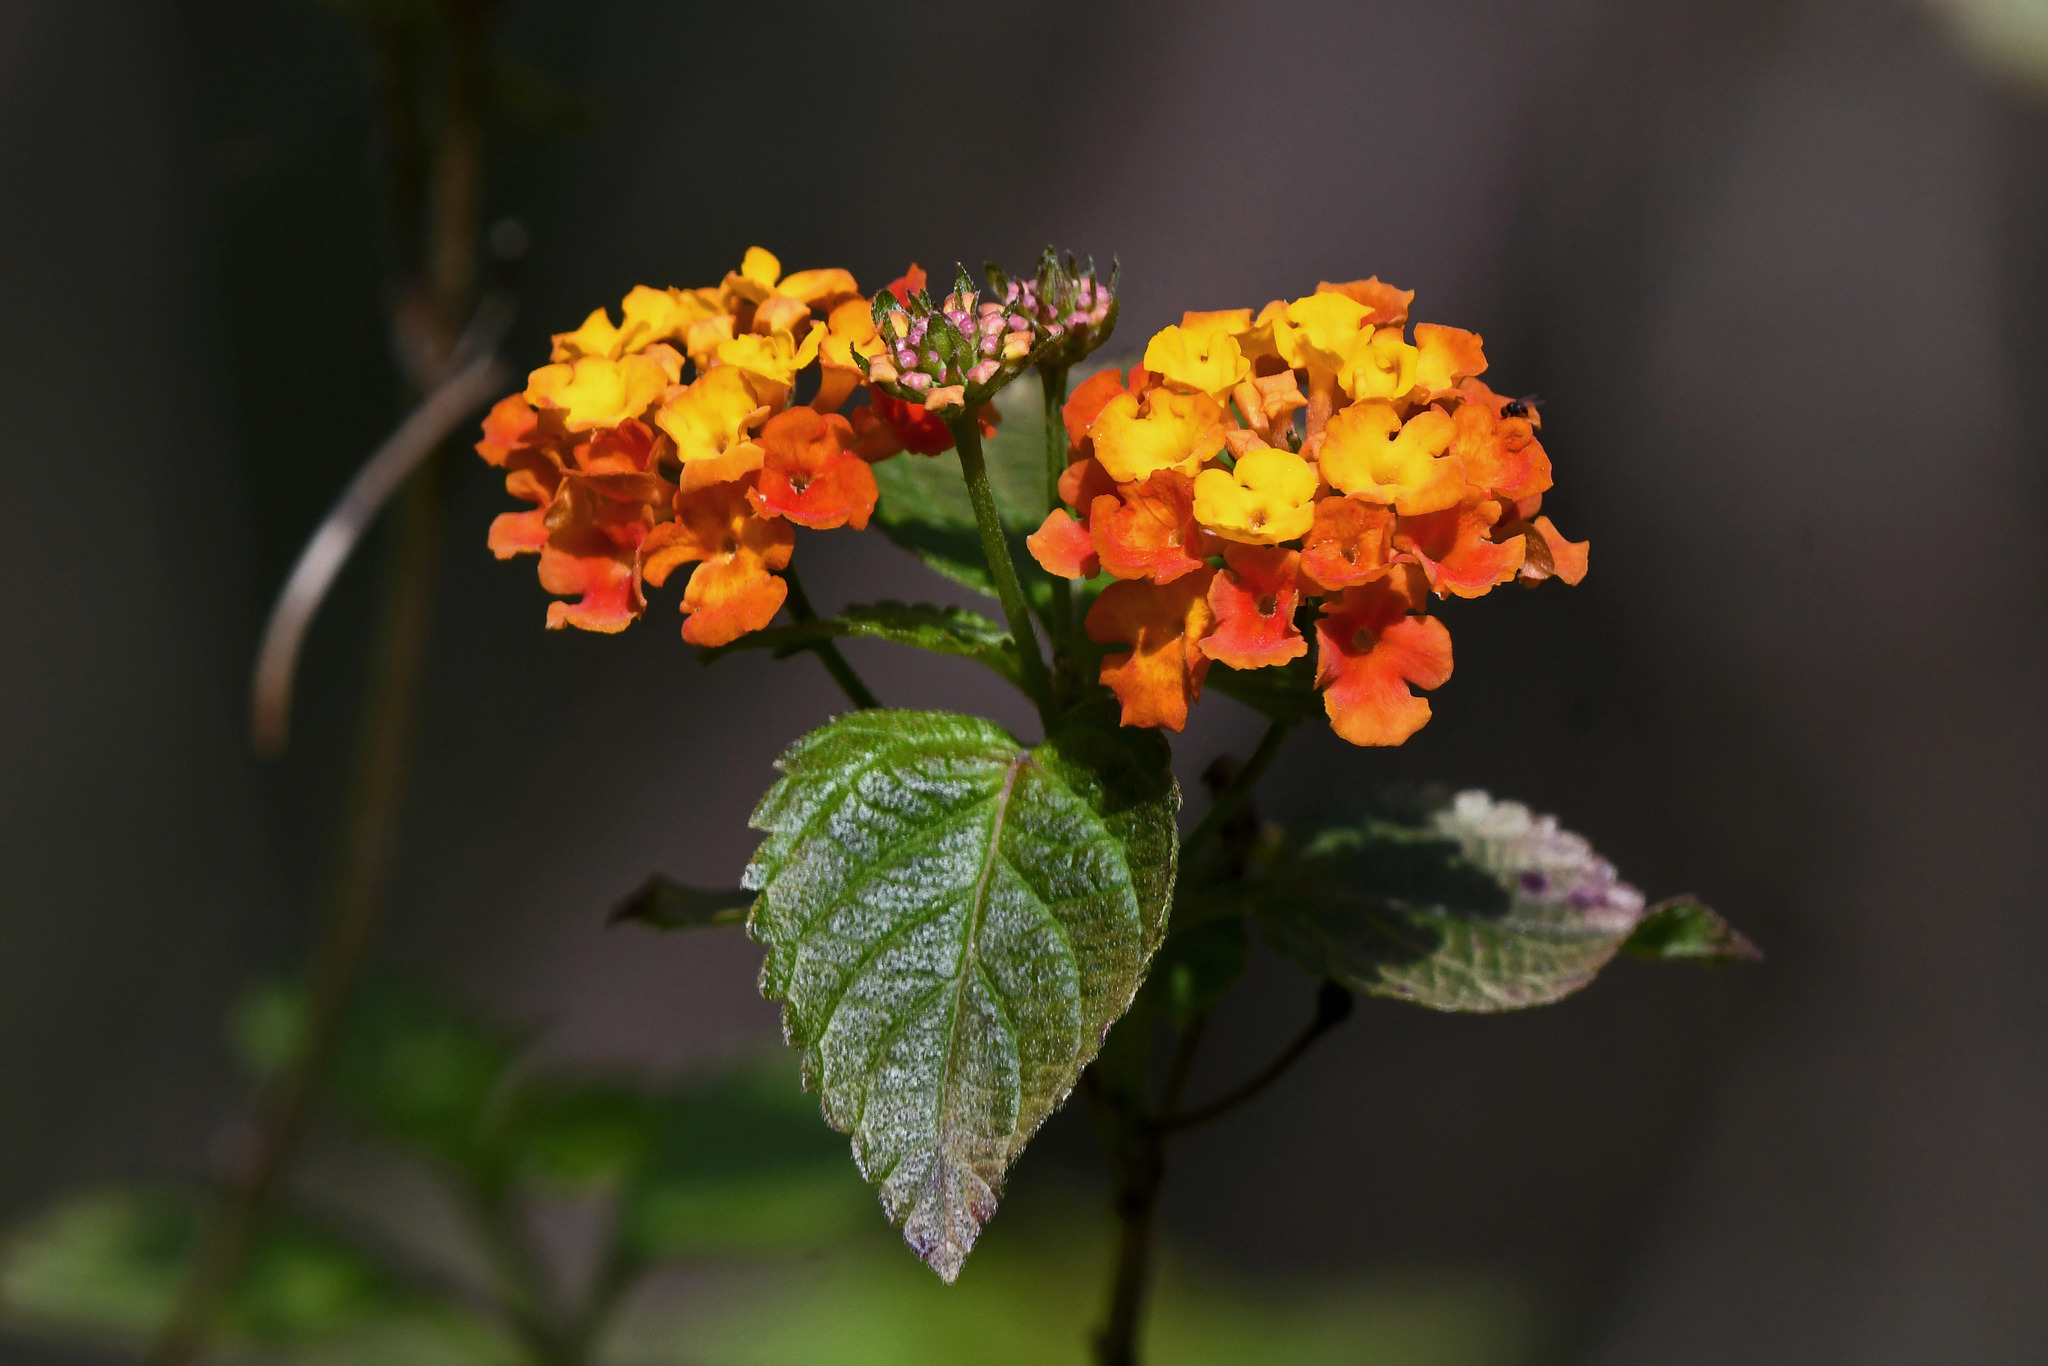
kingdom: Plantae
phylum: Tracheophyta
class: Magnoliopsida
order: Lamiales
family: Verbenaceae
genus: Lantana
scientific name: Lantana camara
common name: Lantana
